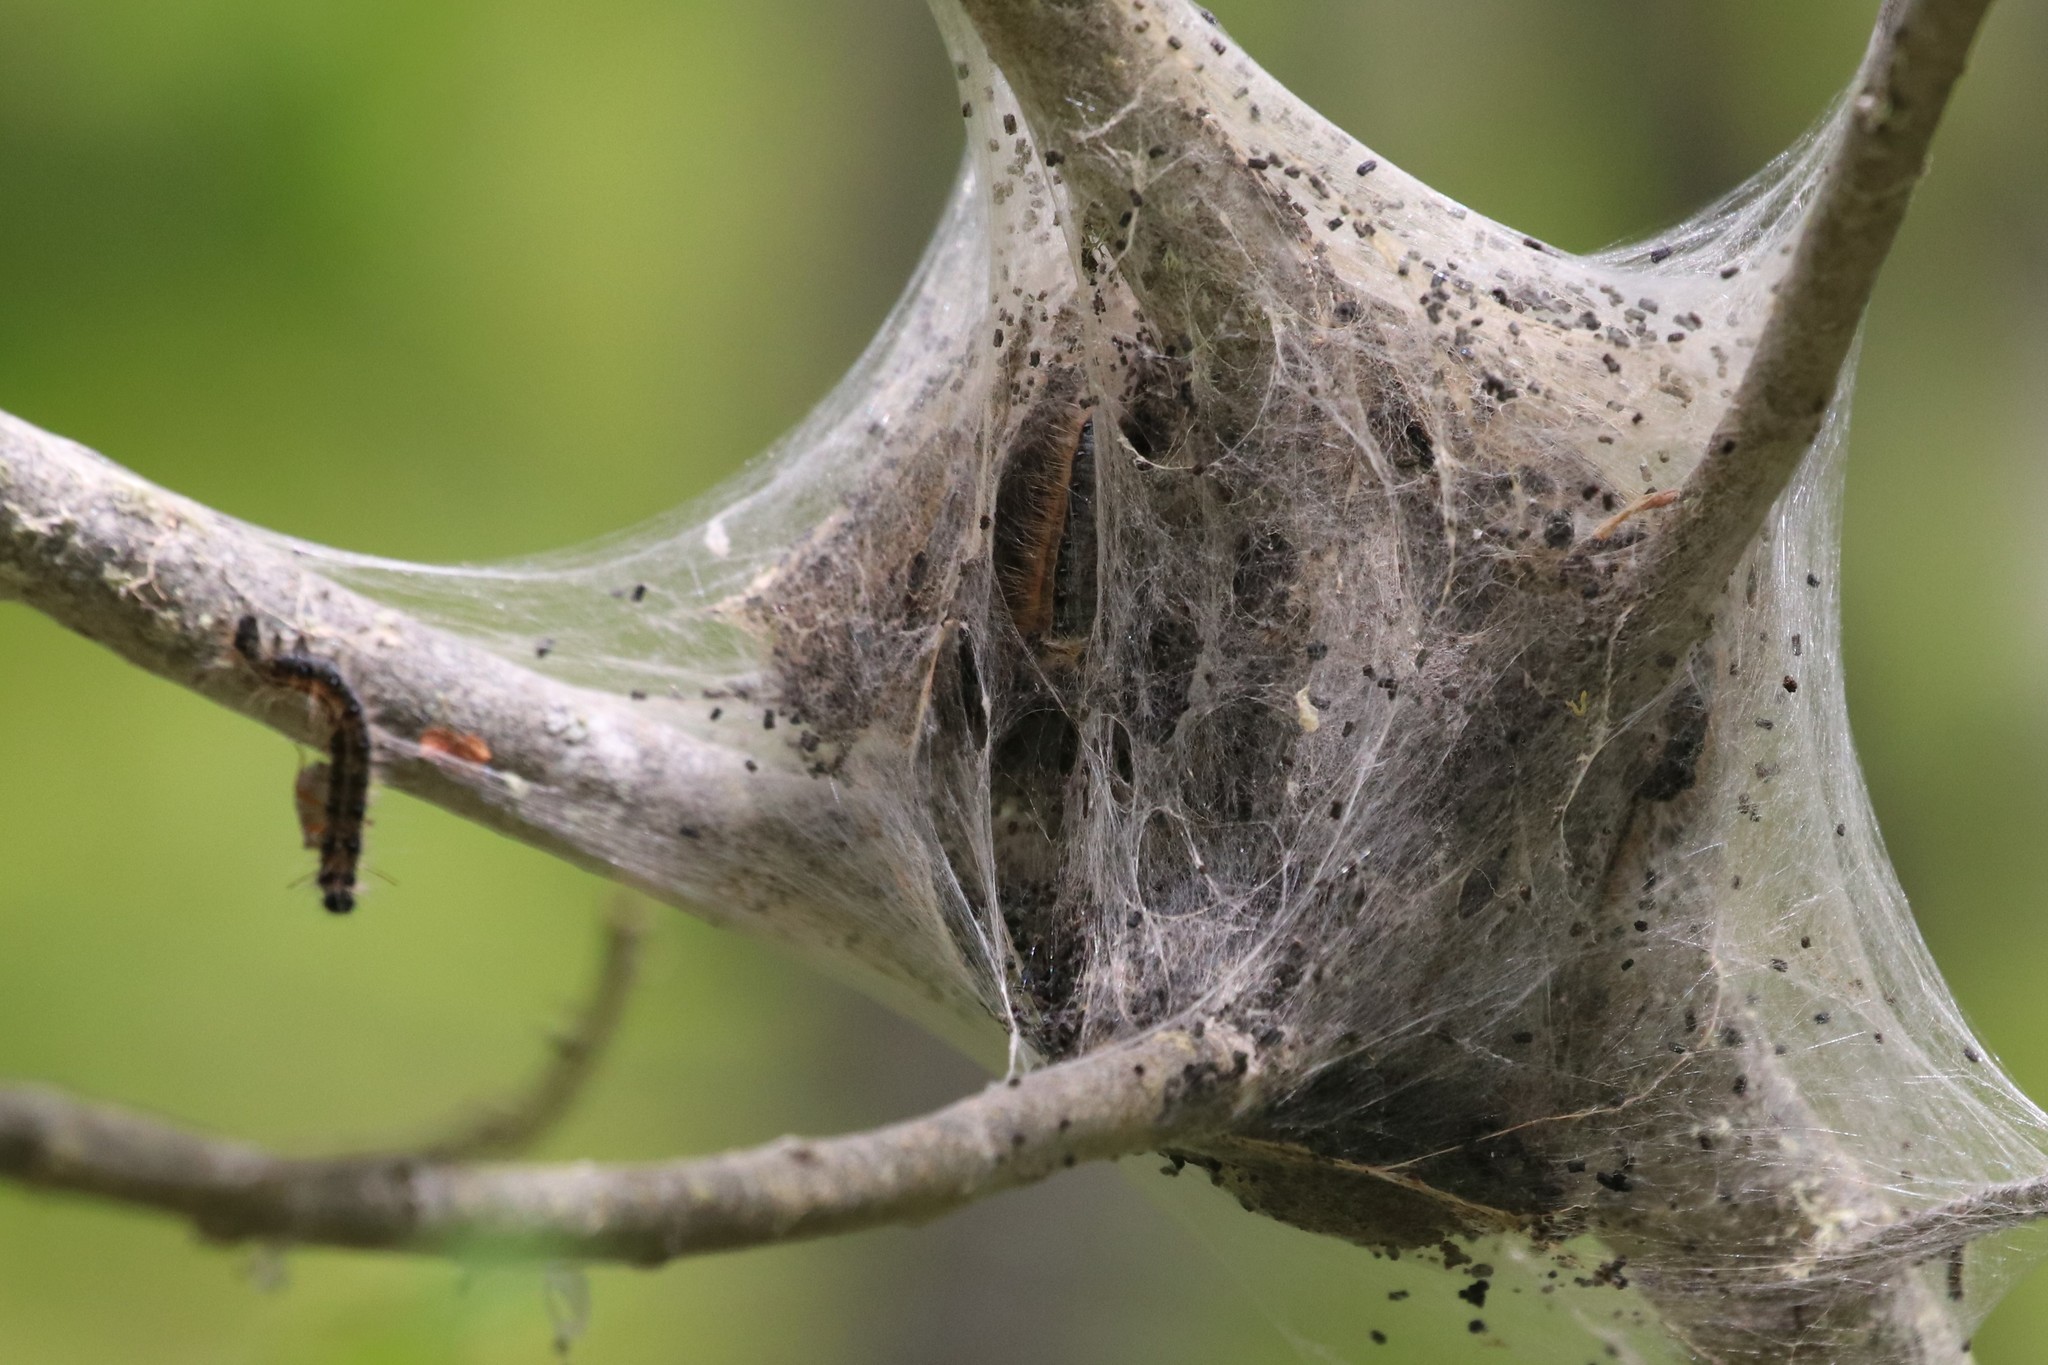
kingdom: Animalia
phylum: Arthropoda
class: Insecta
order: Lepidoptera
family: Lasiocampidae
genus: Malacosoma
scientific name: Malacosoma americana
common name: Eastern tent caterpillar moth
